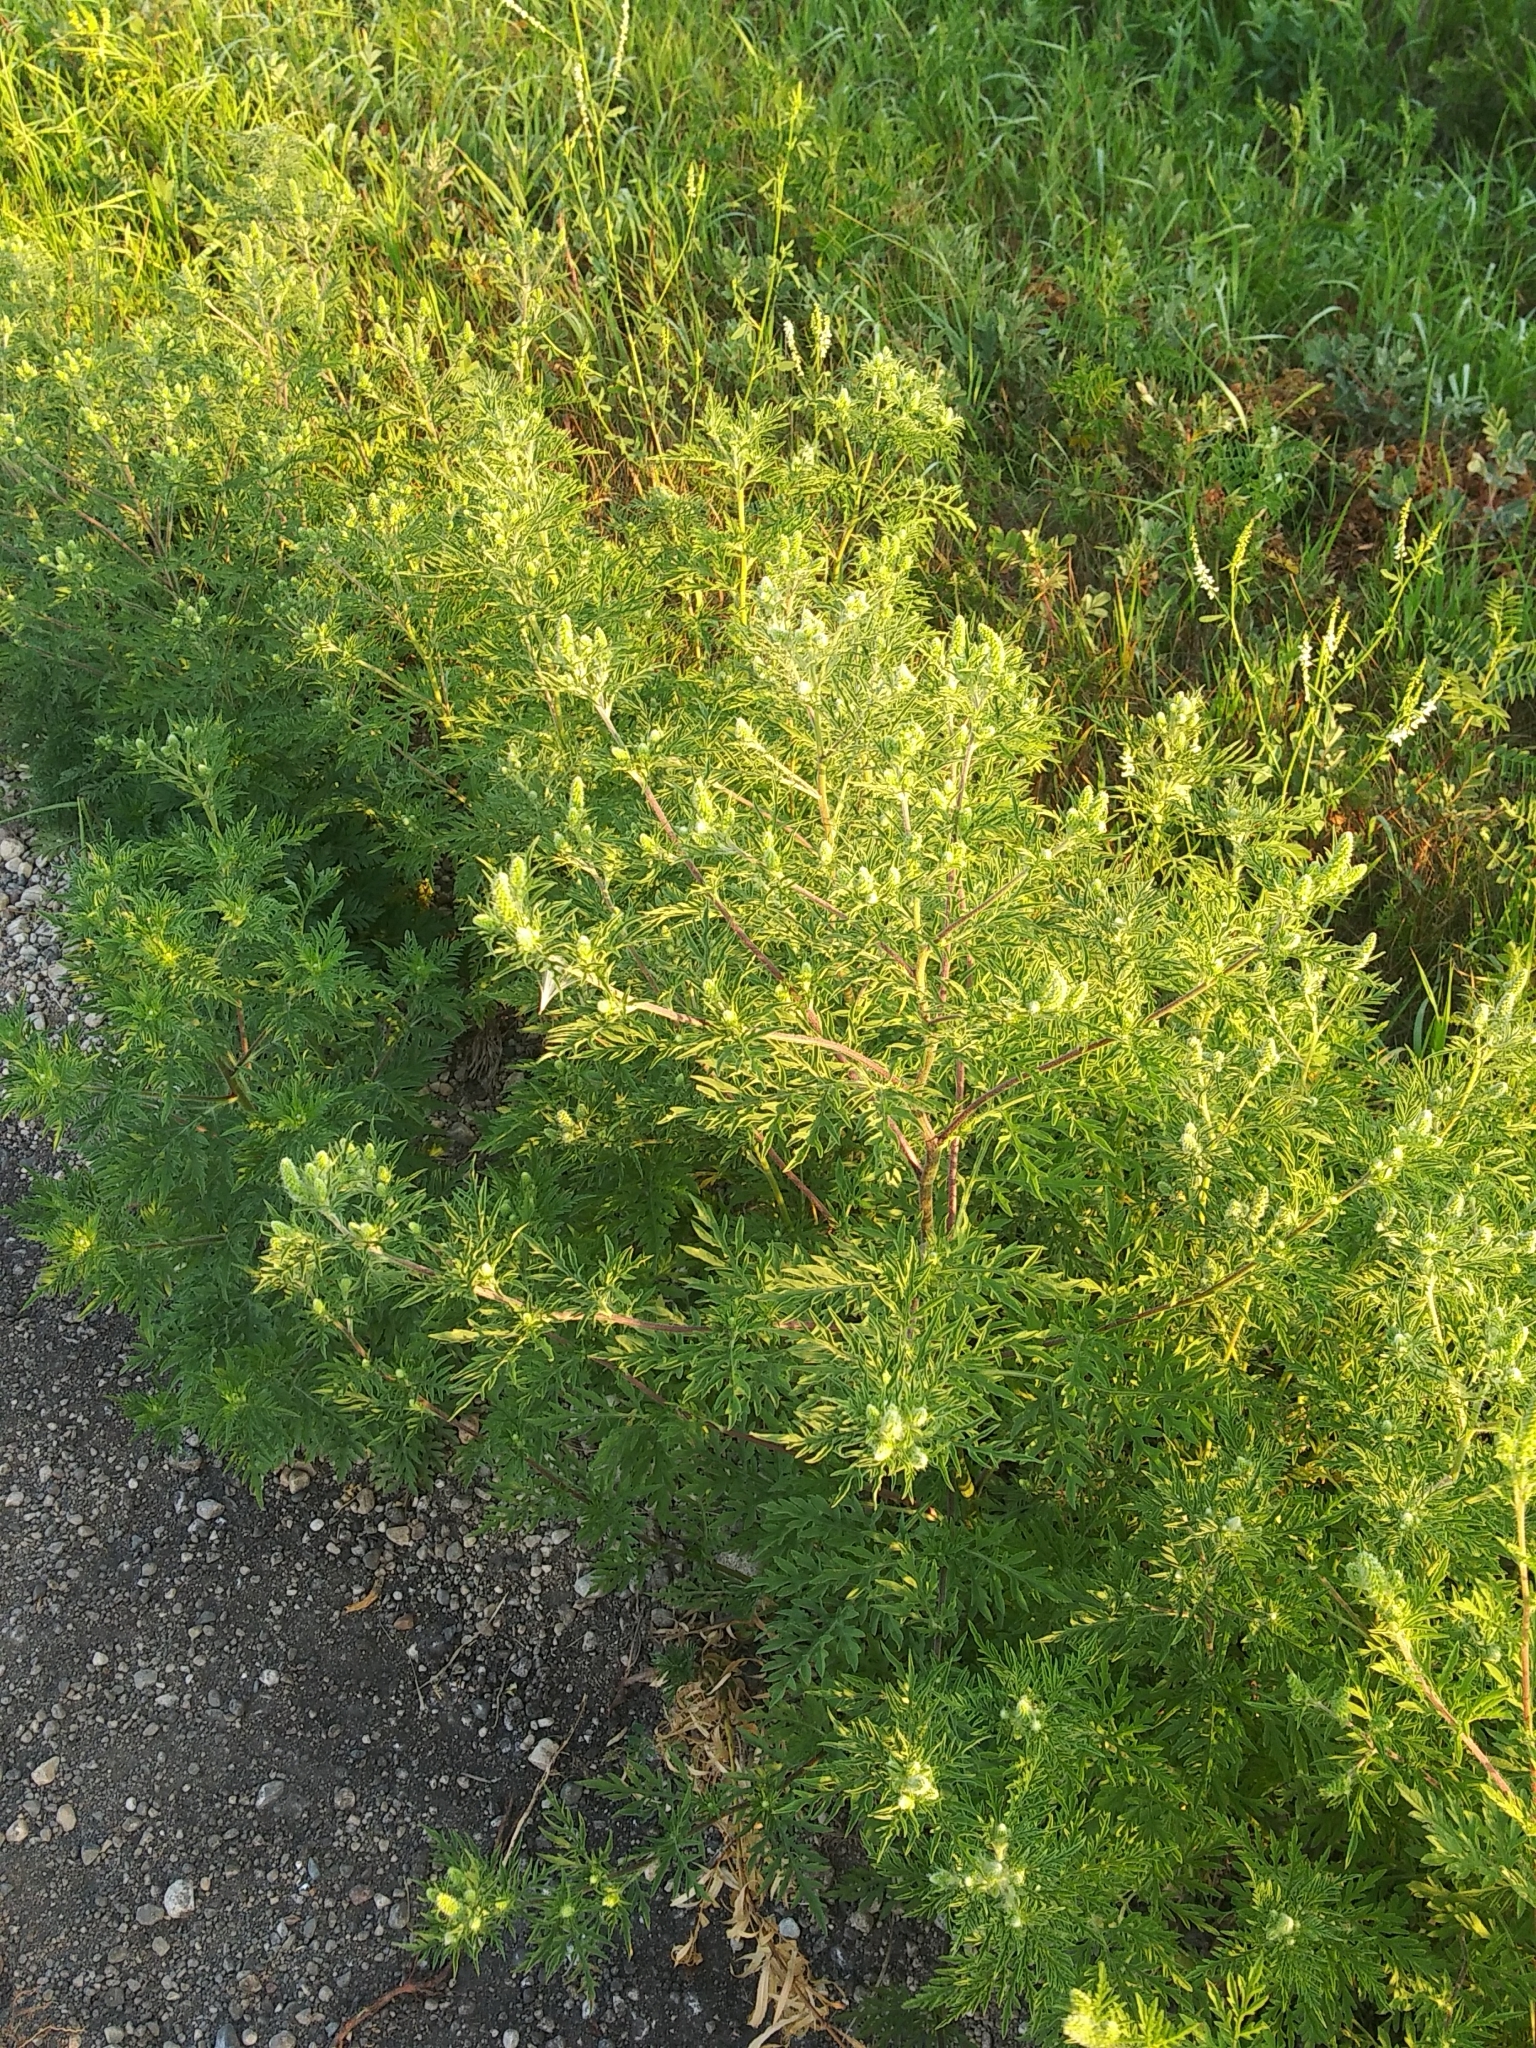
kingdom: Plantae
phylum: Tracheophyta
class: Magnoliopsida
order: Asterales
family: Asteraceae
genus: Ambrosia
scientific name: Ambrosia artemisiifolia
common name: Annual ragweed
